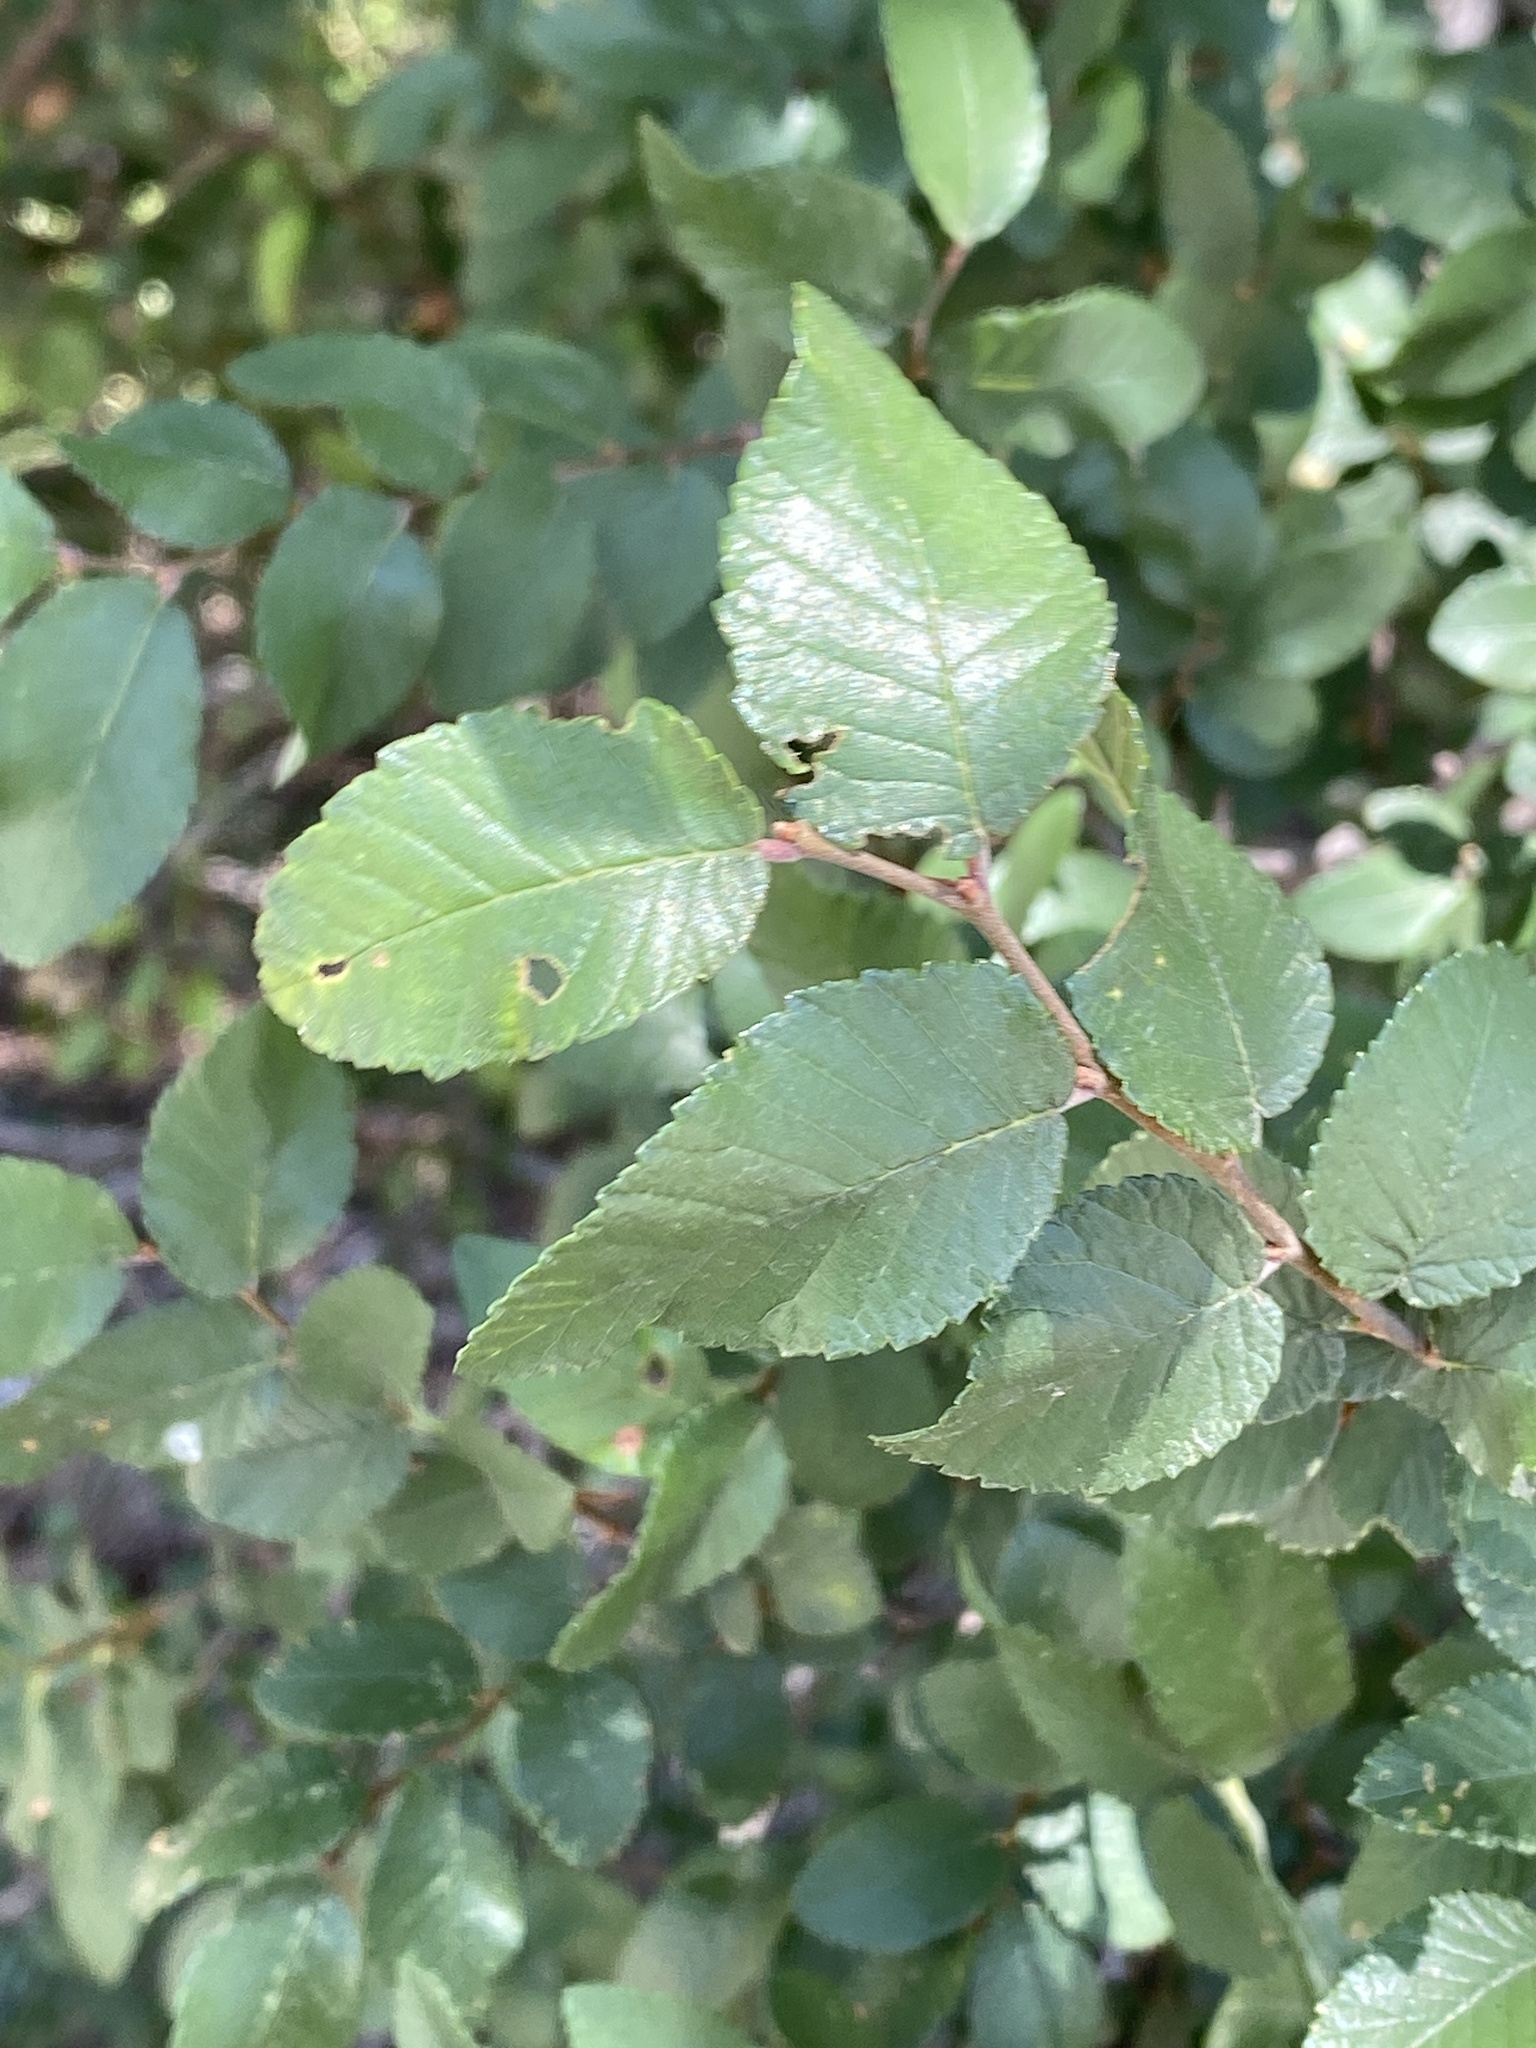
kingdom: Plantae
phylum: Tracheophyta
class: Magnoliopsida
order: Rosales
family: Ulmaceae
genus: Ulmus
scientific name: Ulmus crassifolia
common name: Basket elm
